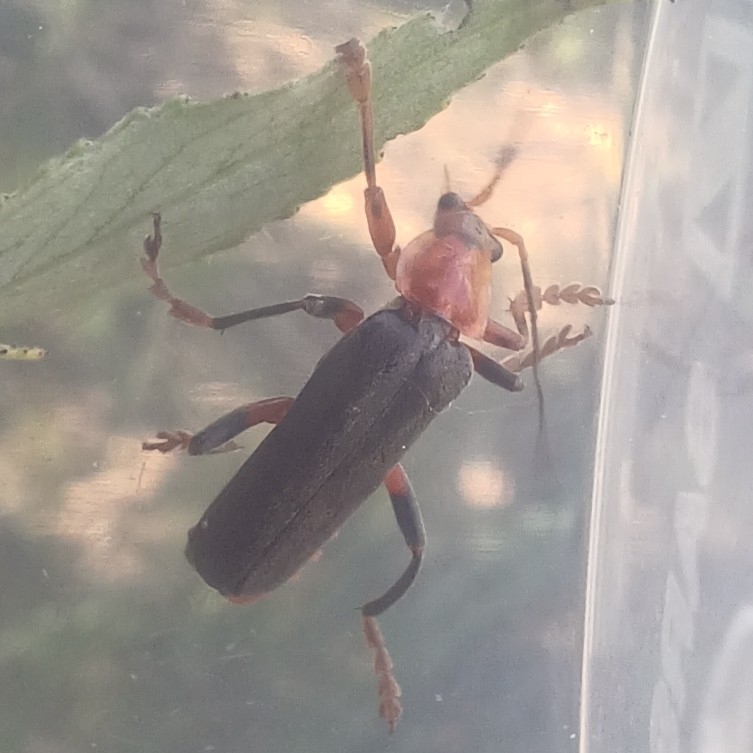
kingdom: Animalia
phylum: Arthropoda
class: Insecta
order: Coleoptera
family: Cantharidae
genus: Cantharis
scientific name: Cantharis livida
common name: Livid soldier beetle
